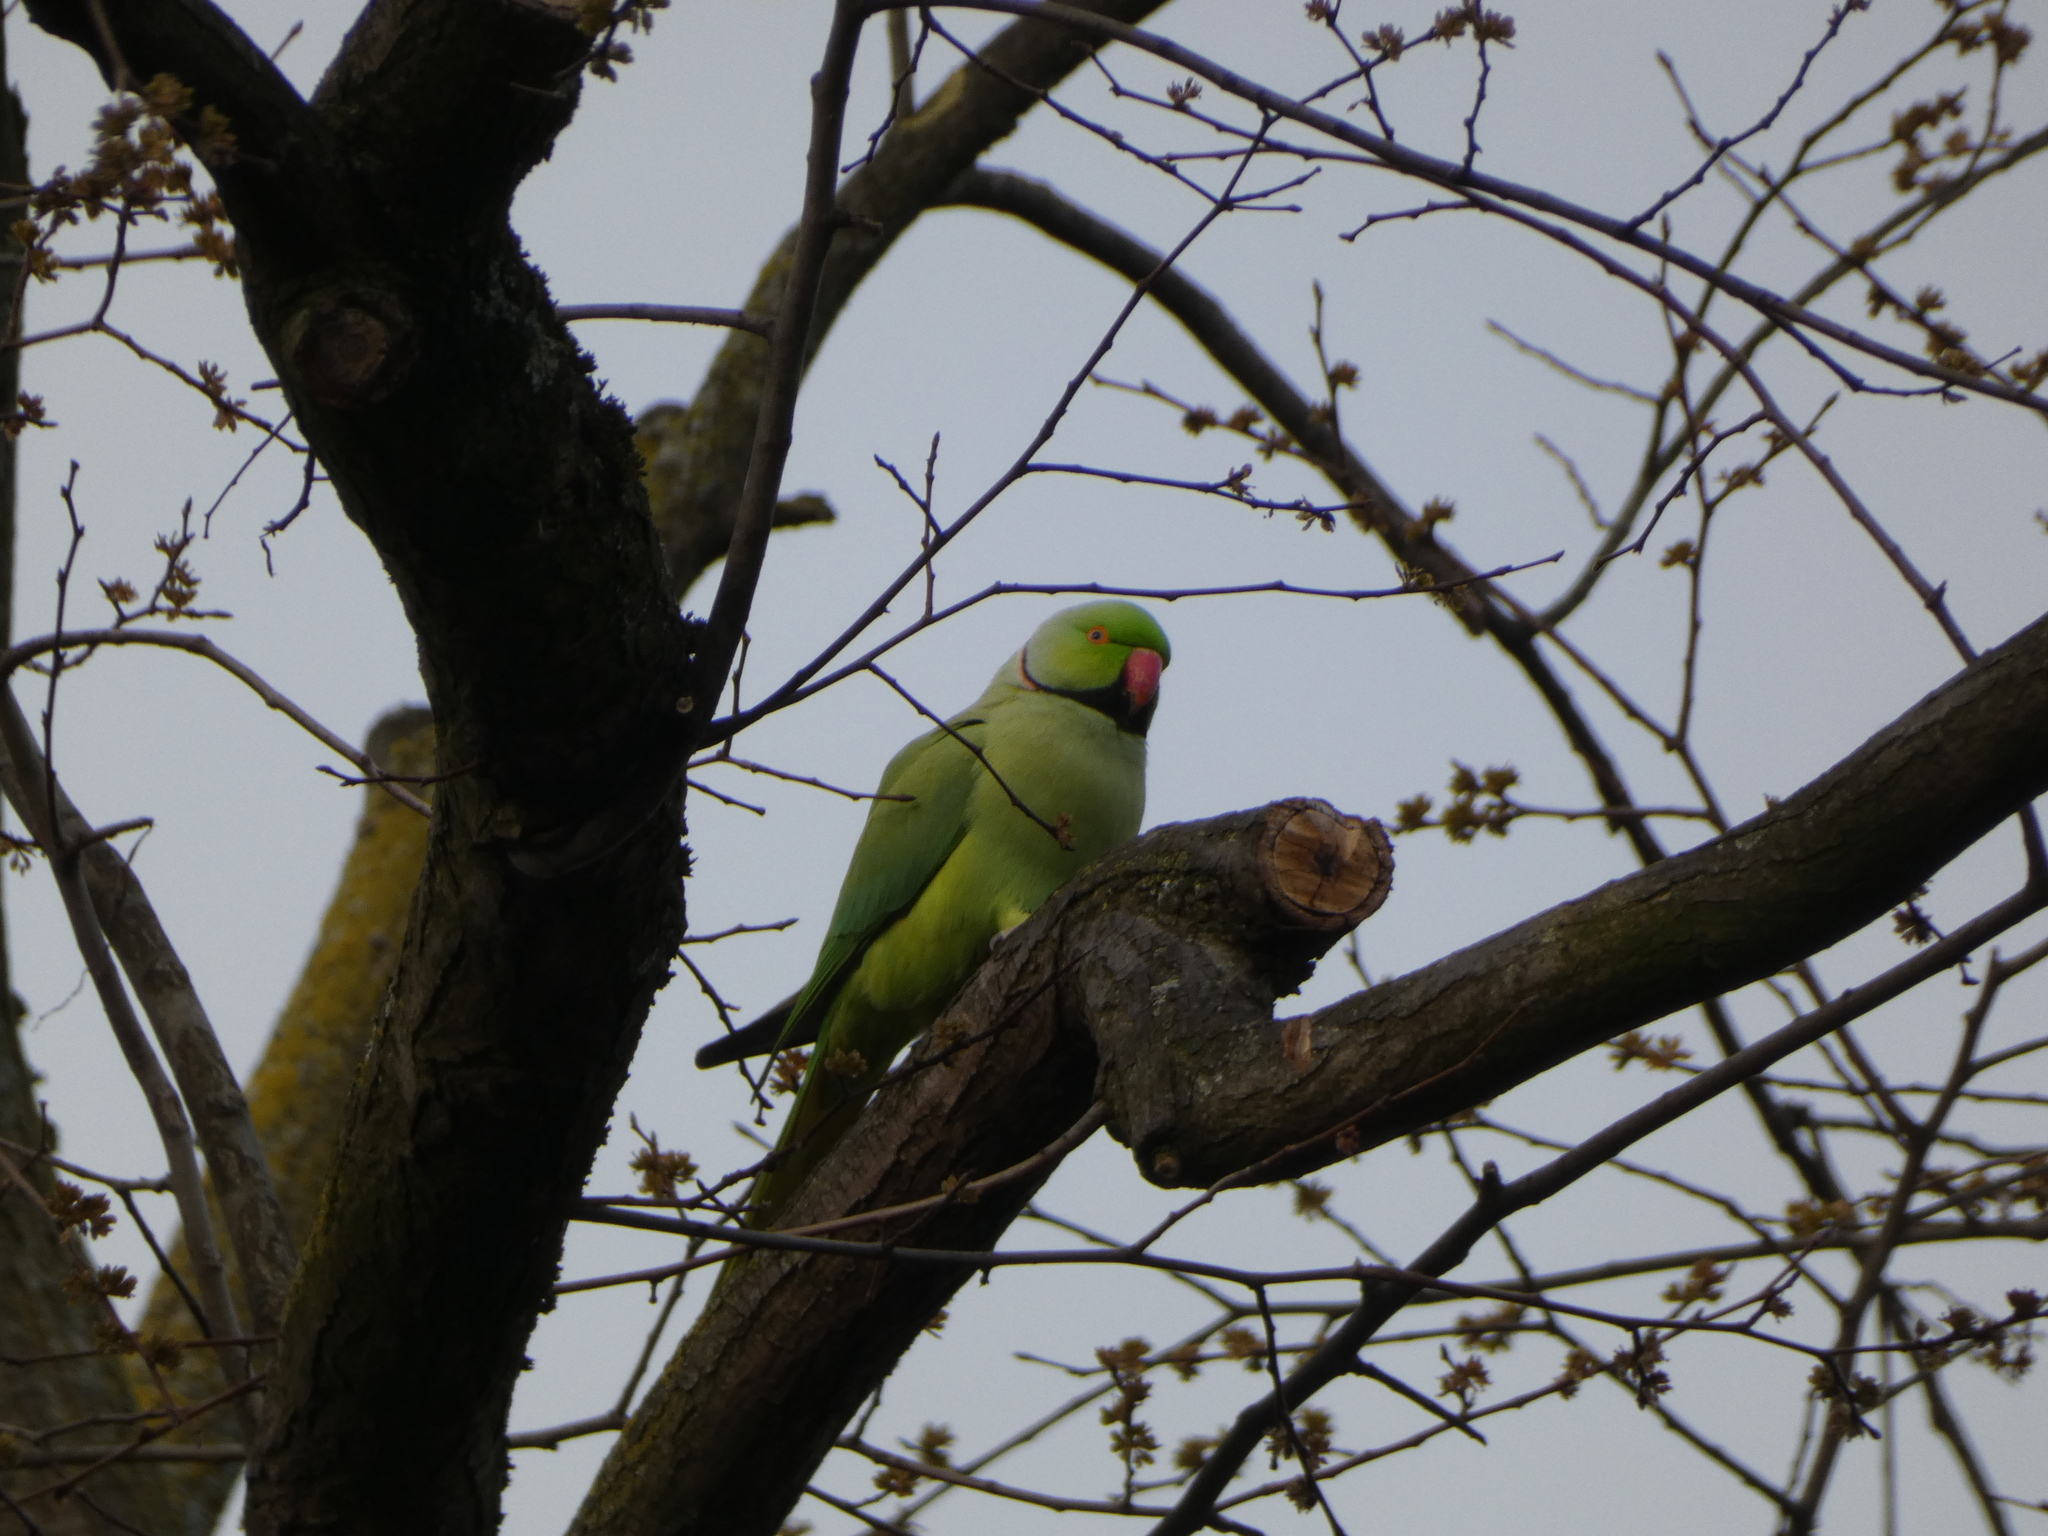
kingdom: Animalia
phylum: Chordata
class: Aves
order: Psittaciformes
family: Psittacidae
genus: Psittacula
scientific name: Psittacula krameri
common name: Rose-ringed parakeet
